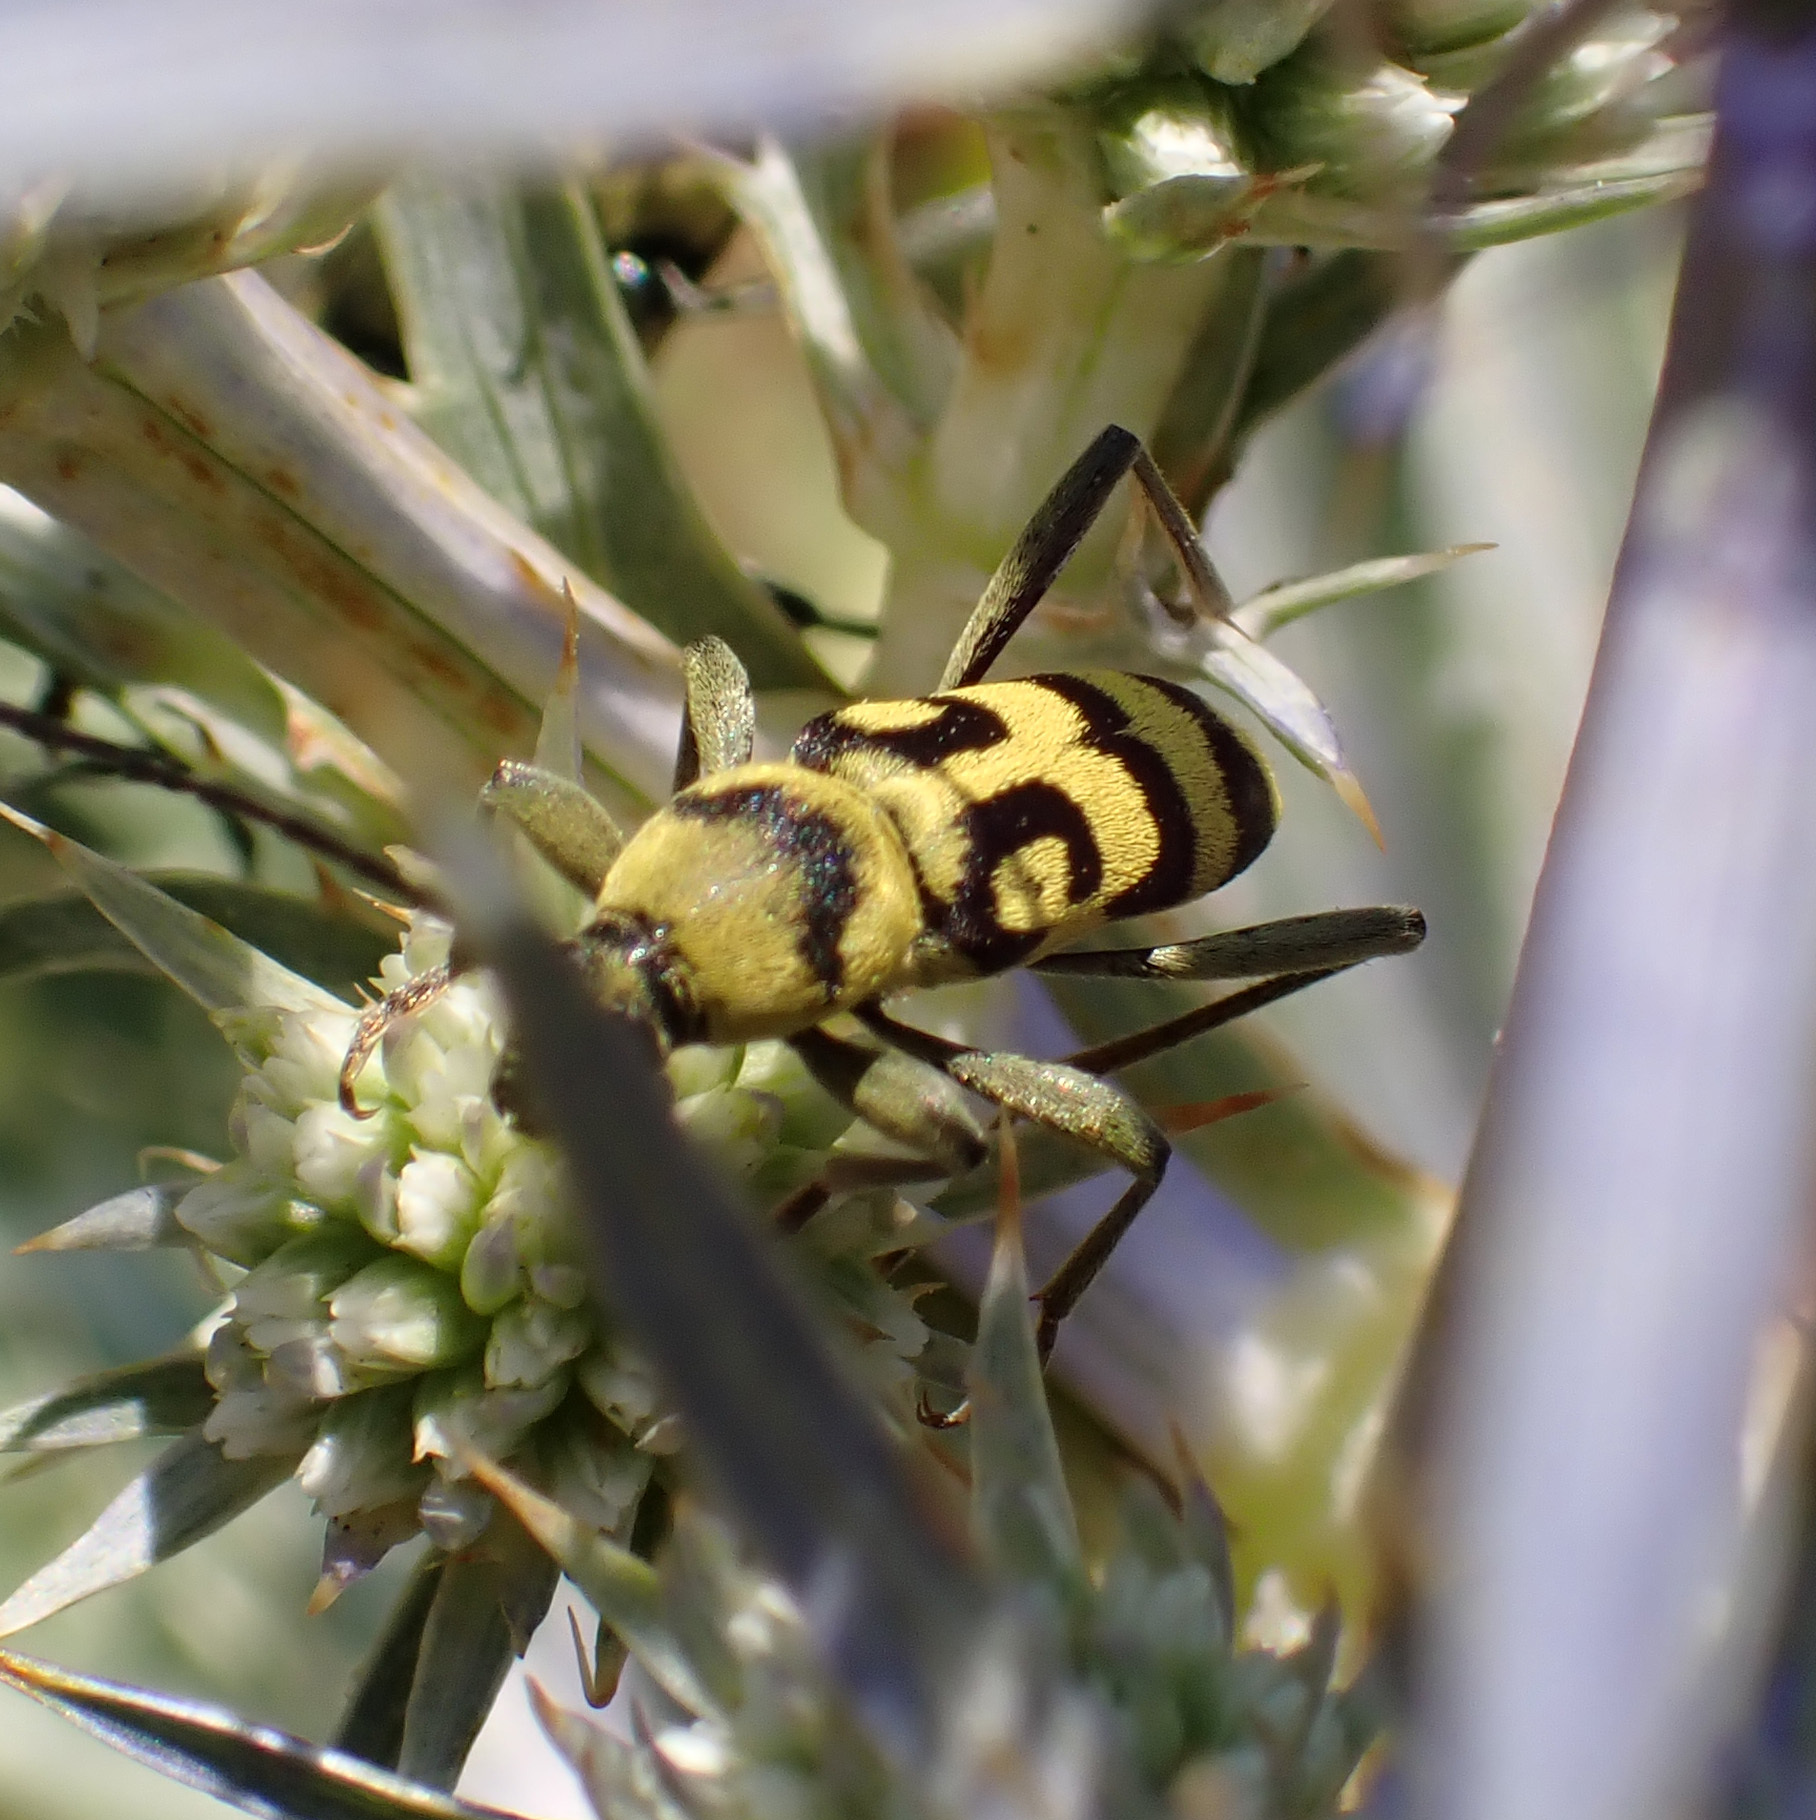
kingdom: Animalia
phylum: Arthropoda
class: Insecta
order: Coleoptera
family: Cerambycidae
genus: Chlorophorus
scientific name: Chlorophorus varius
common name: Grape wood borer
